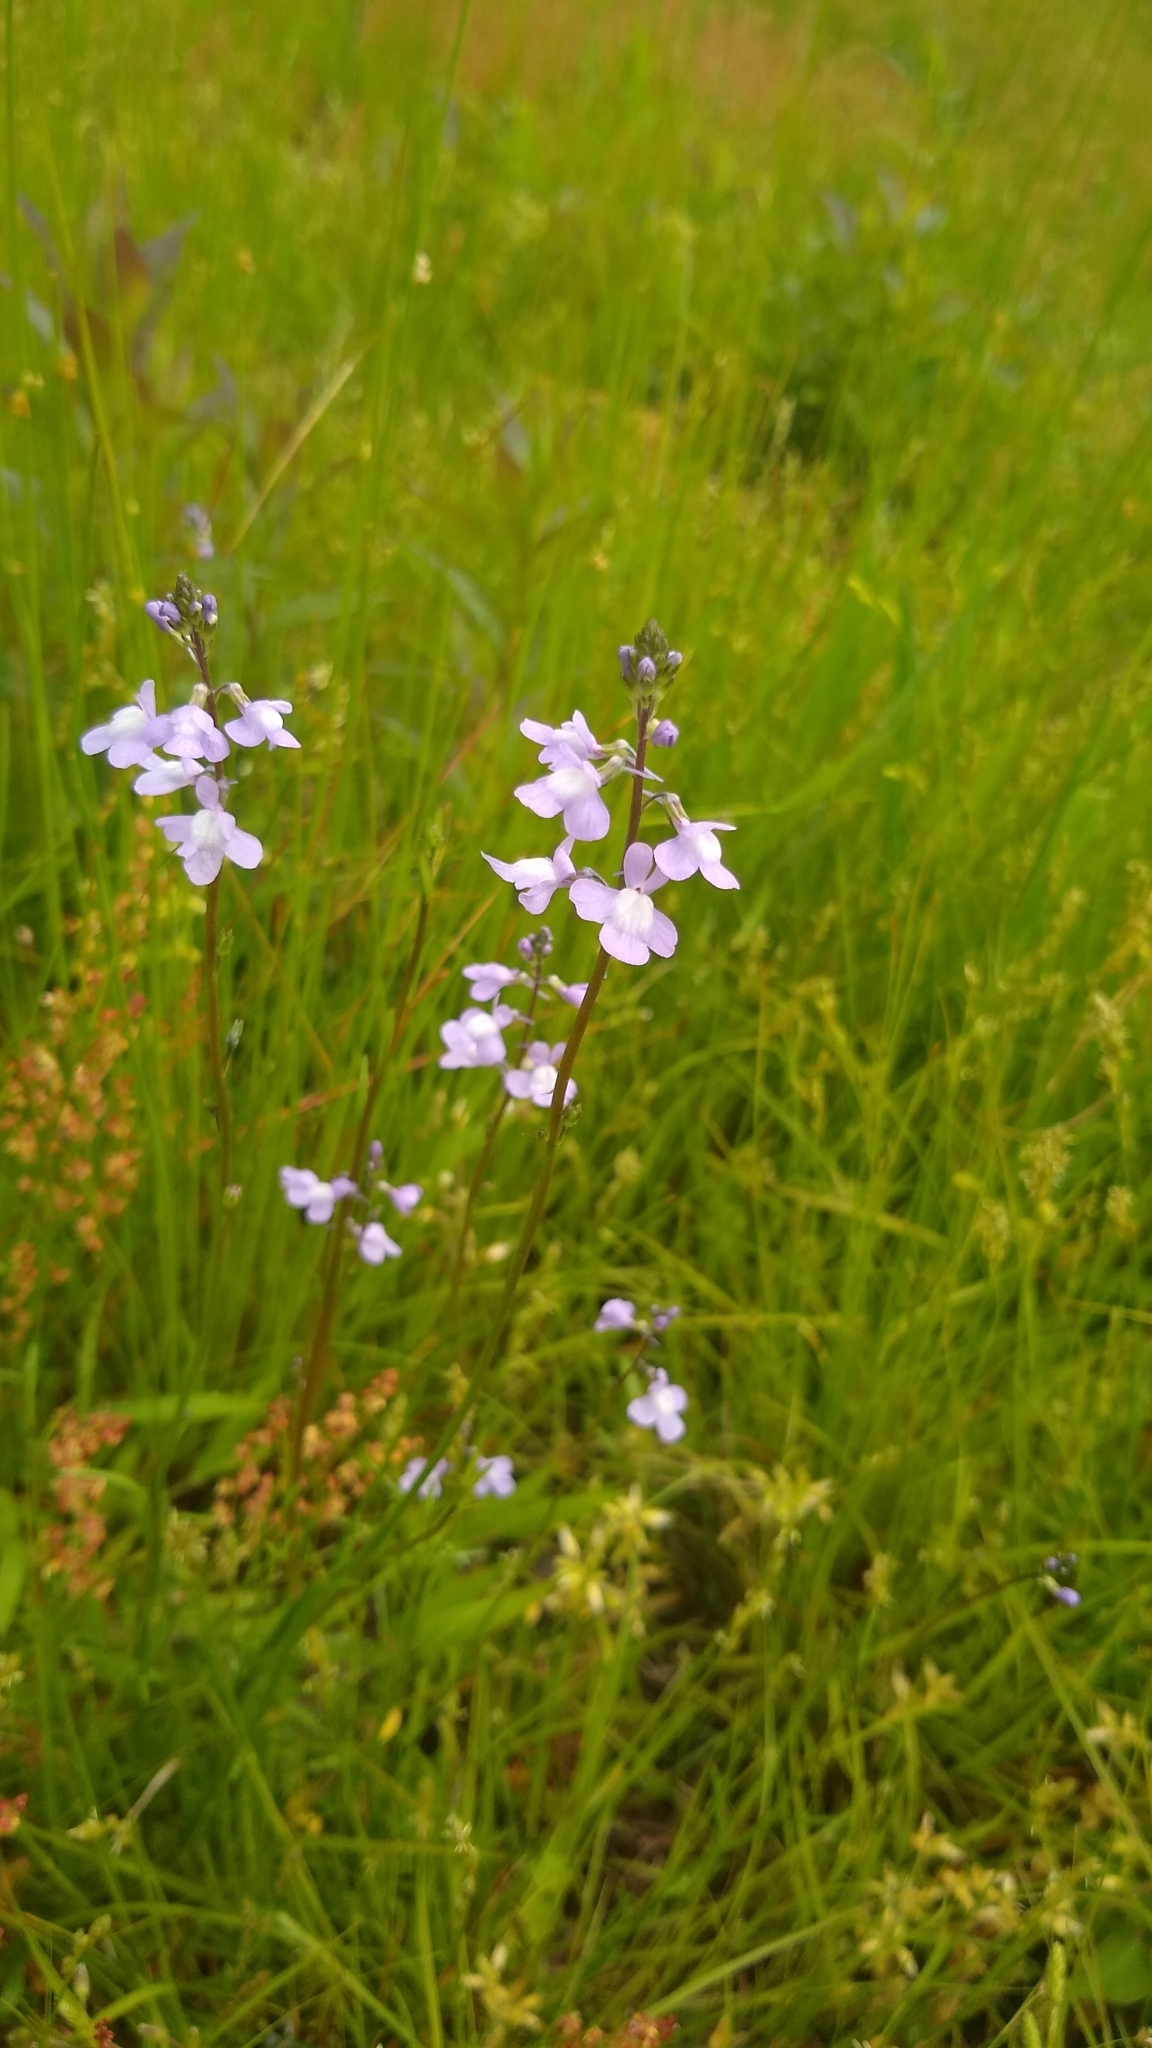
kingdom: Plantae
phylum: Tracheophyta
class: Magnoliopsida
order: Lamiales
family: Plantaginaceae
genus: Nuttallanthus
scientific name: Nuttallanthus canadensis
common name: Blue toadflax
